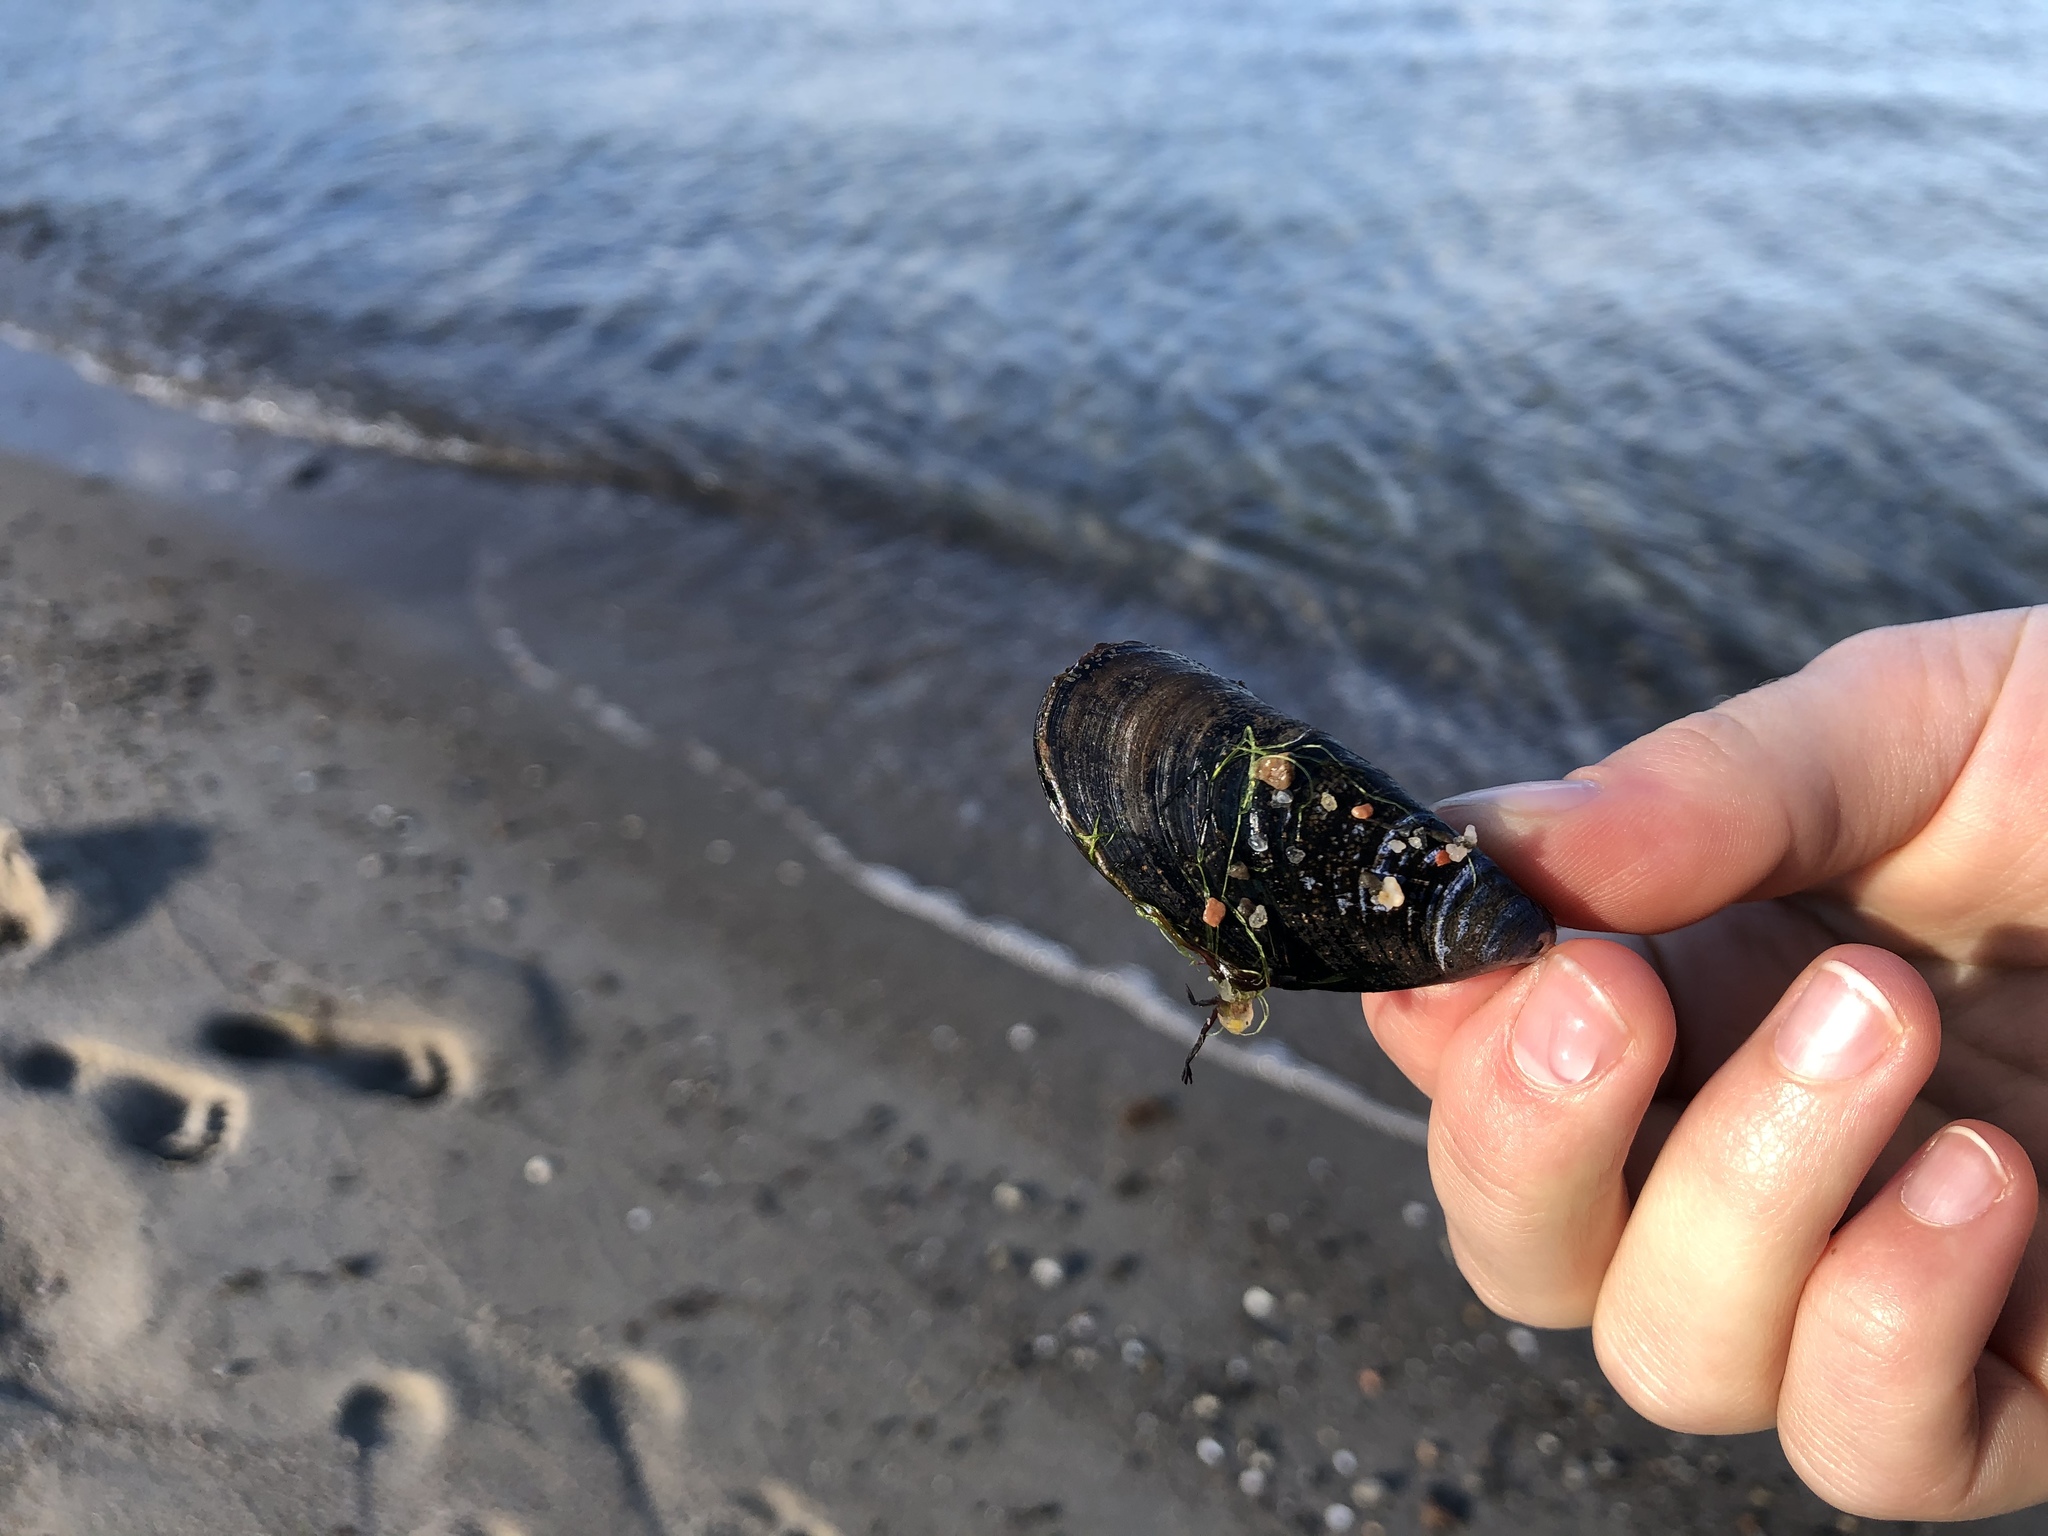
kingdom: Animalia
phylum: Mollusca
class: Bivalvia
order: Mytilida
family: Mytilidae
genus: Mytilus
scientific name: Mytilus edulis
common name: Blue mussel
